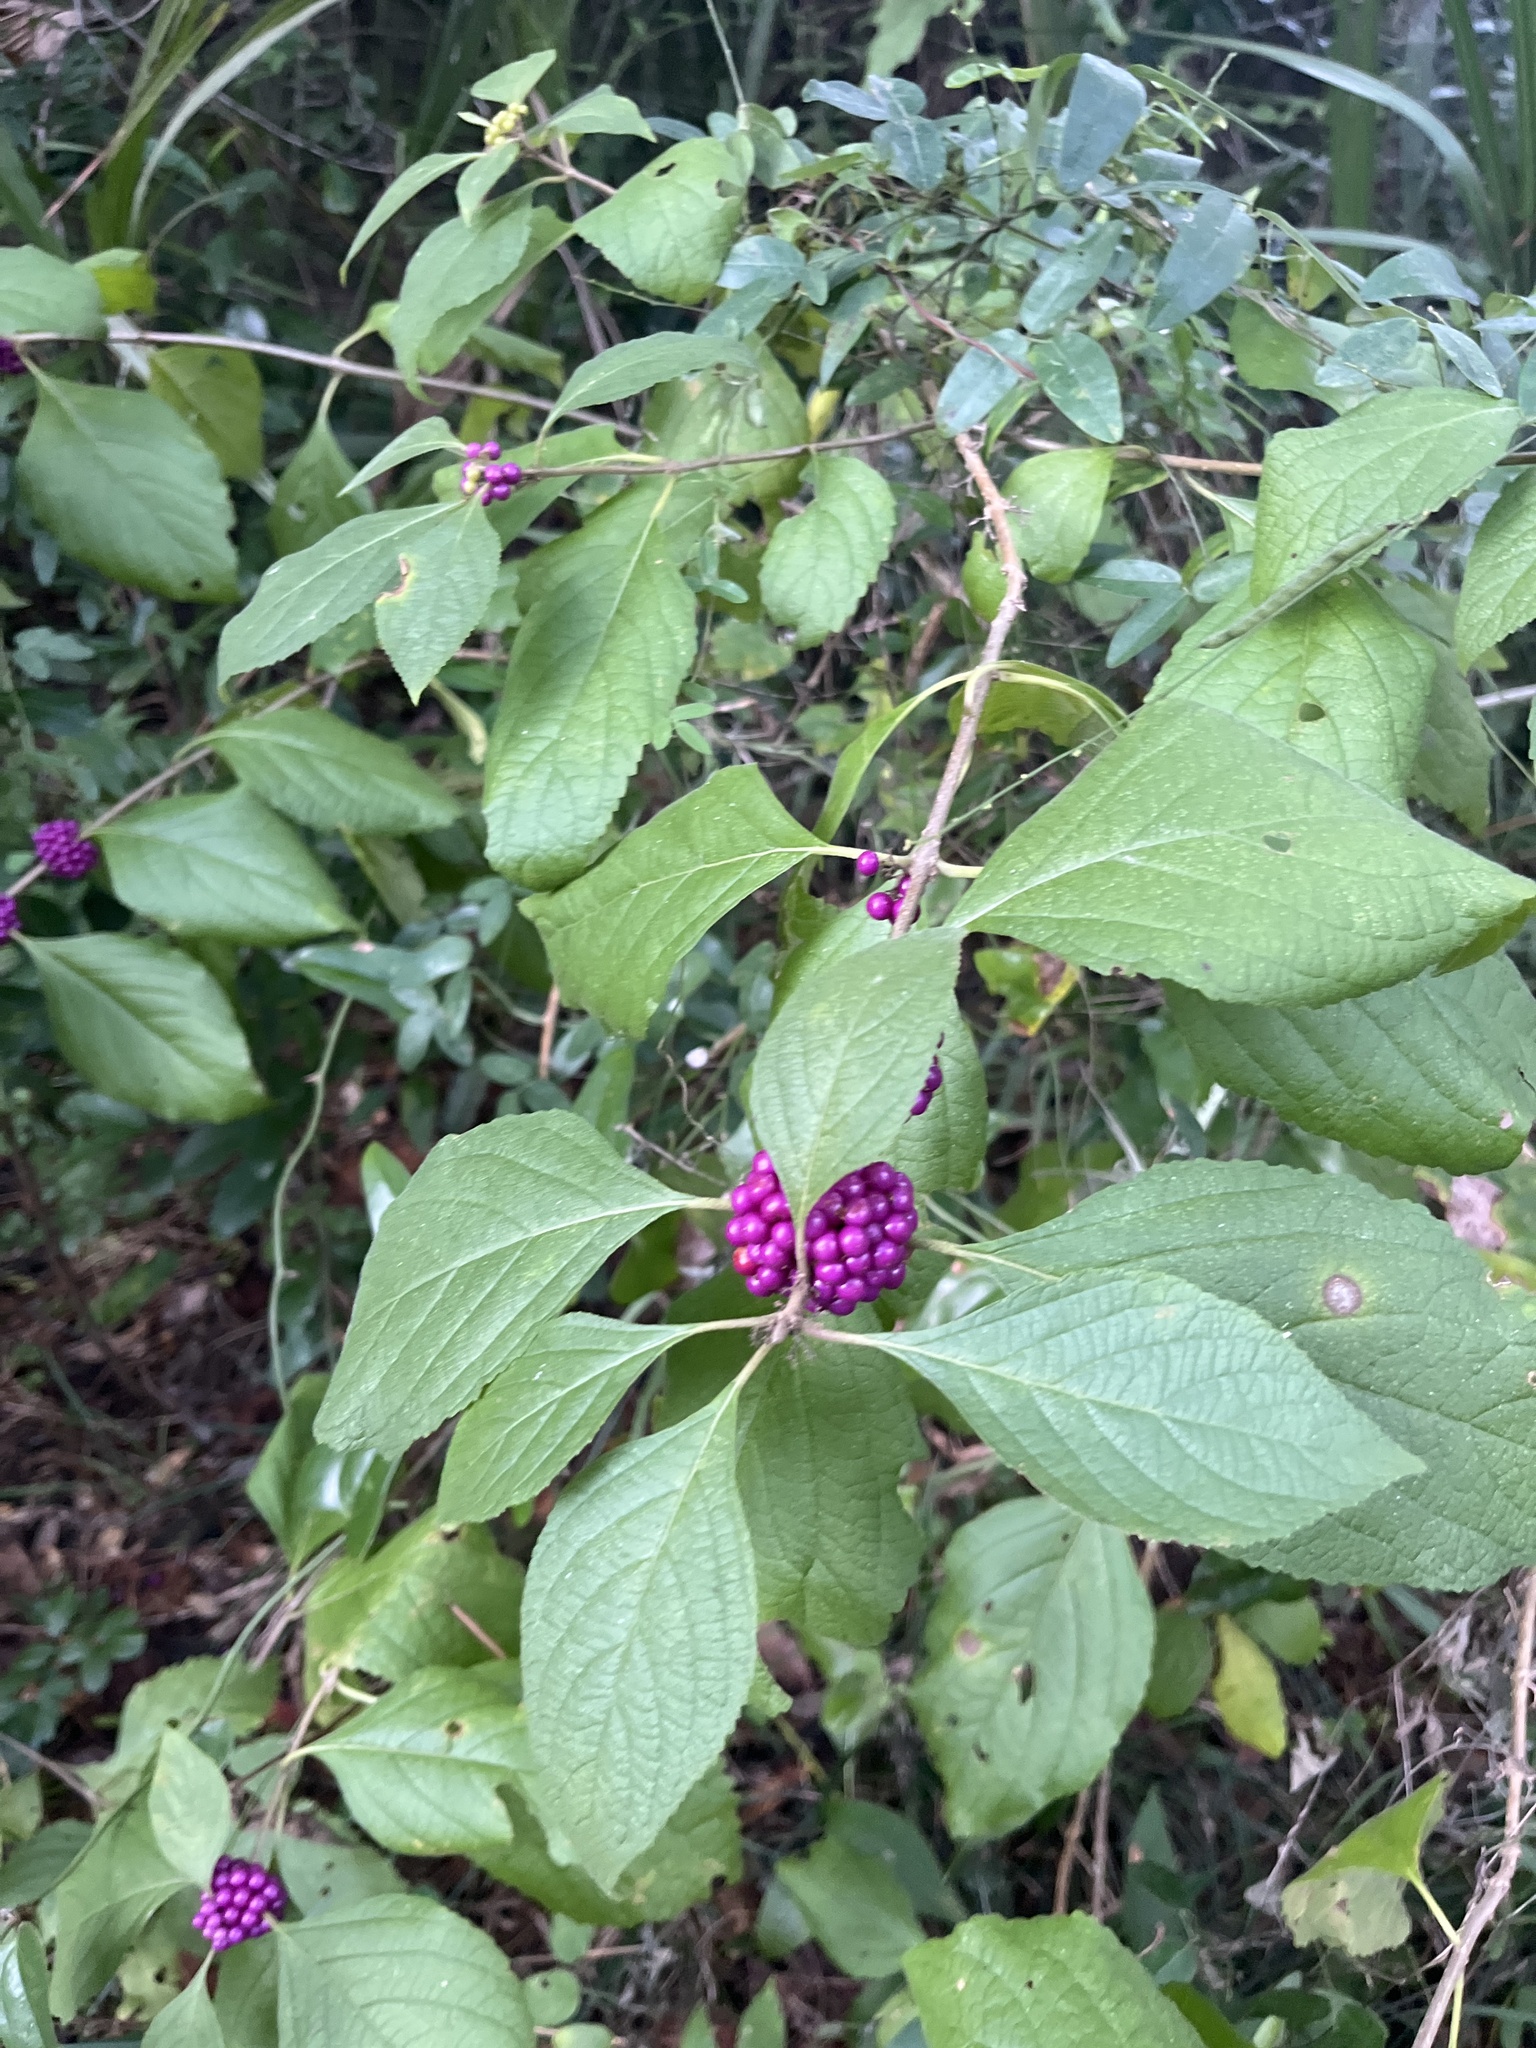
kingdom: Plantae
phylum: Tracheophyta
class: Magnoliopsida
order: Lamiales
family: Lamiaceae
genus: Callicarpa
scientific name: Callicarpa americana
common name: American beautyberry
